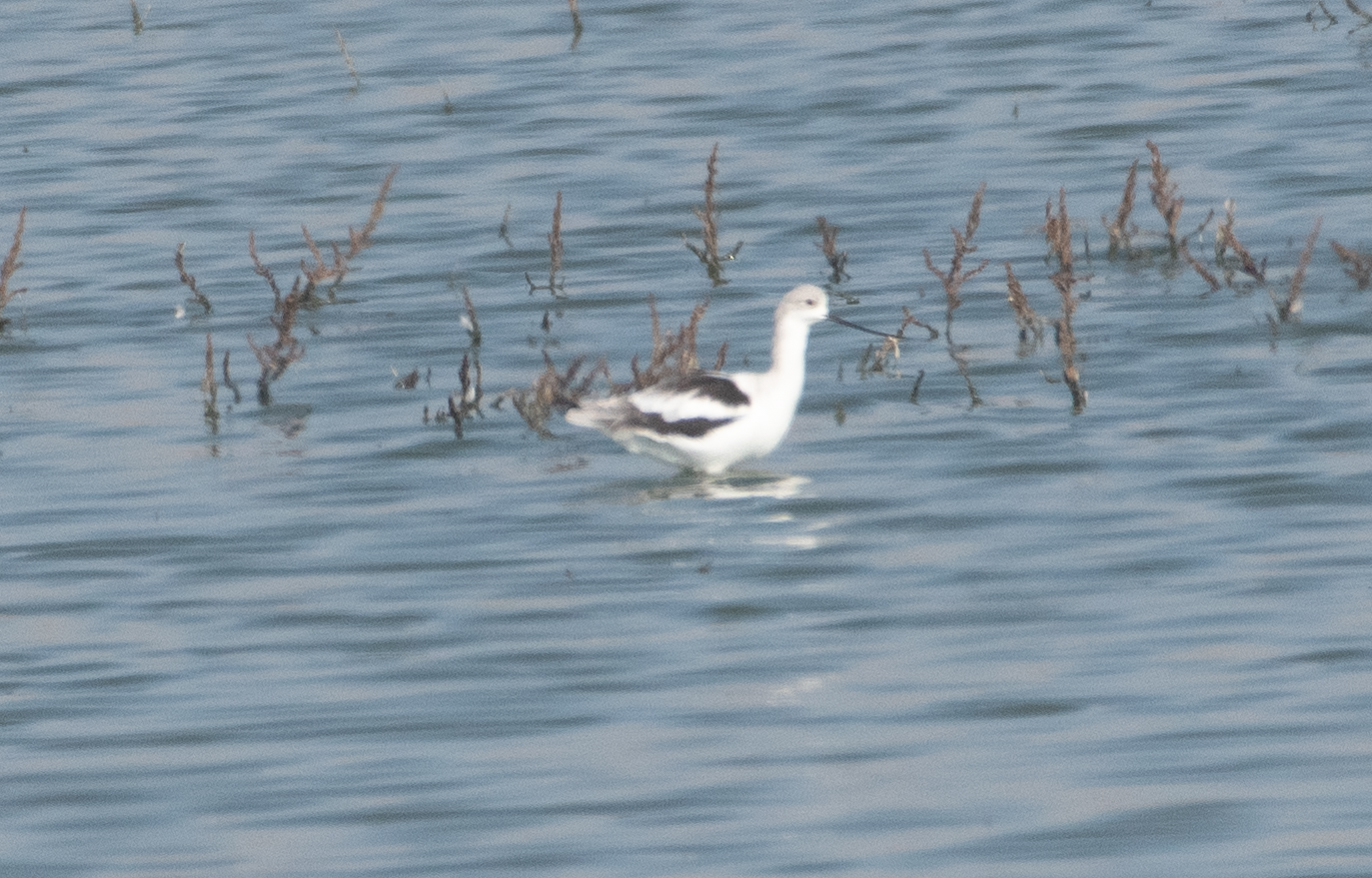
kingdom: Animalia
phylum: Chordata
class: Aves
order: Charadriiformes
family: Recurvirostridae
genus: Recurvirostra
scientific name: Recurvirostra americana
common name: American avocet
